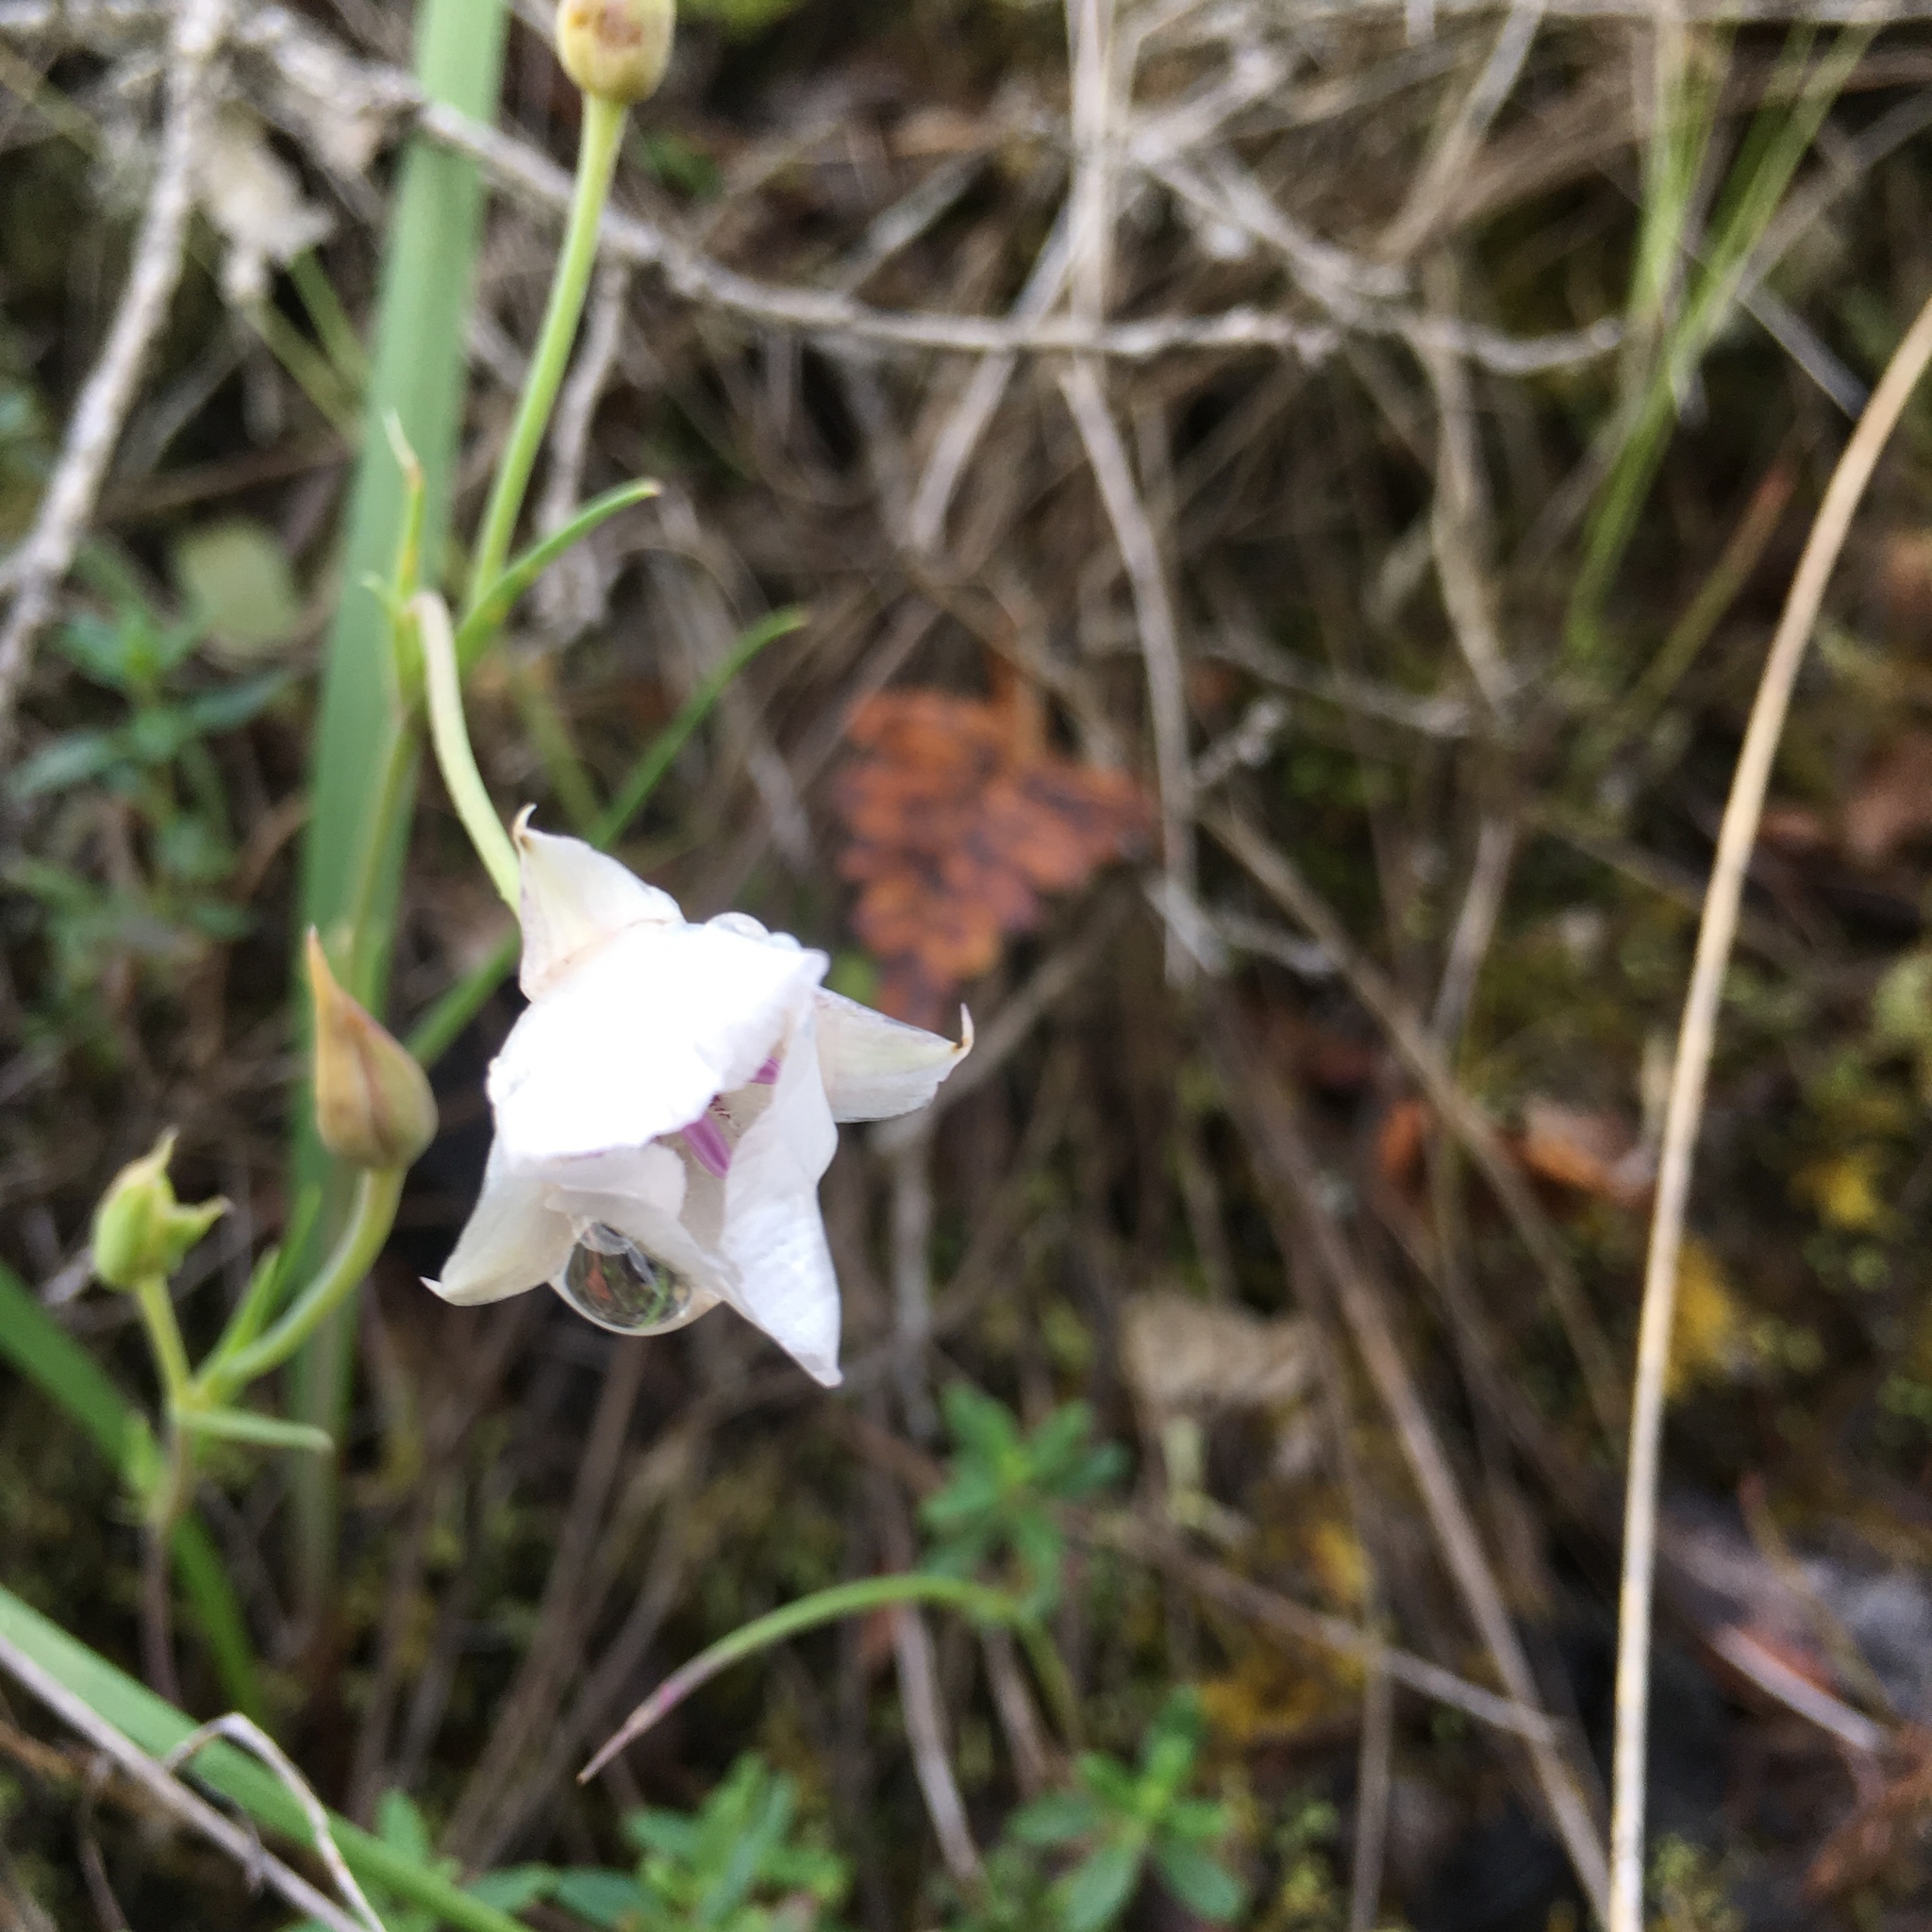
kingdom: Plantae
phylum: Tracheophyta
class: Liliopsida
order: Liliales
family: Liliaceae
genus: Calochortus
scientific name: Calochortus umbellatus
